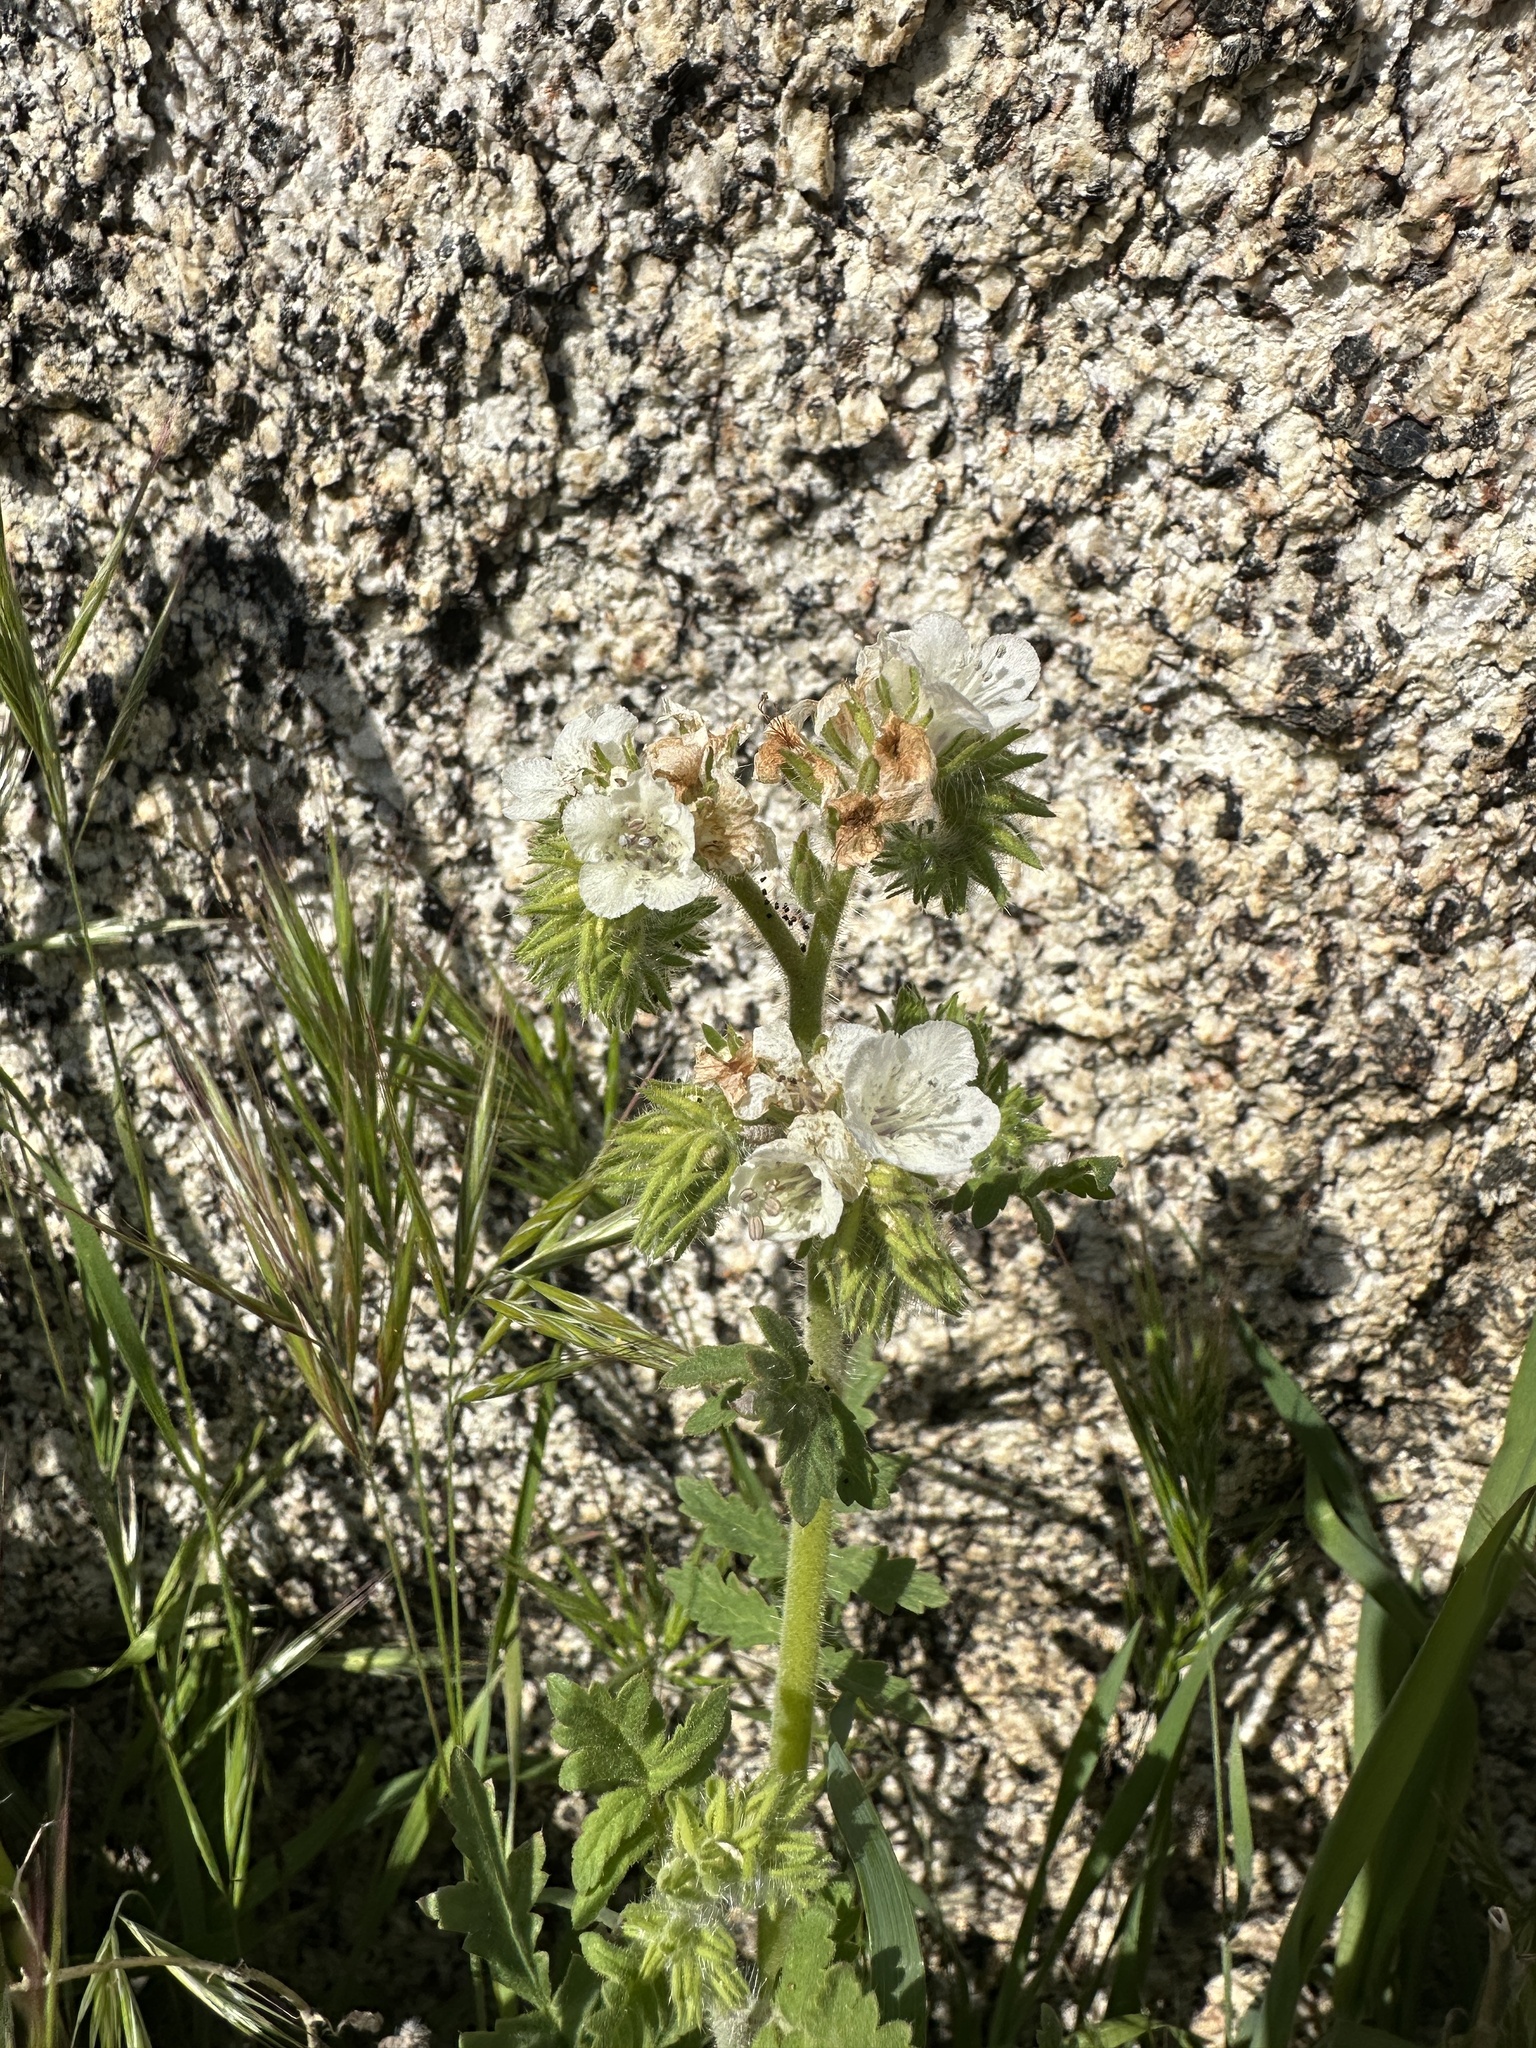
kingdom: Plantae
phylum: Tracheophyta
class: Magnoliopsida
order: Boraginales
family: Hydrophyllaceae
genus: Phacelia
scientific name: Phacelia cicutaria
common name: Caterpillar phacelia
